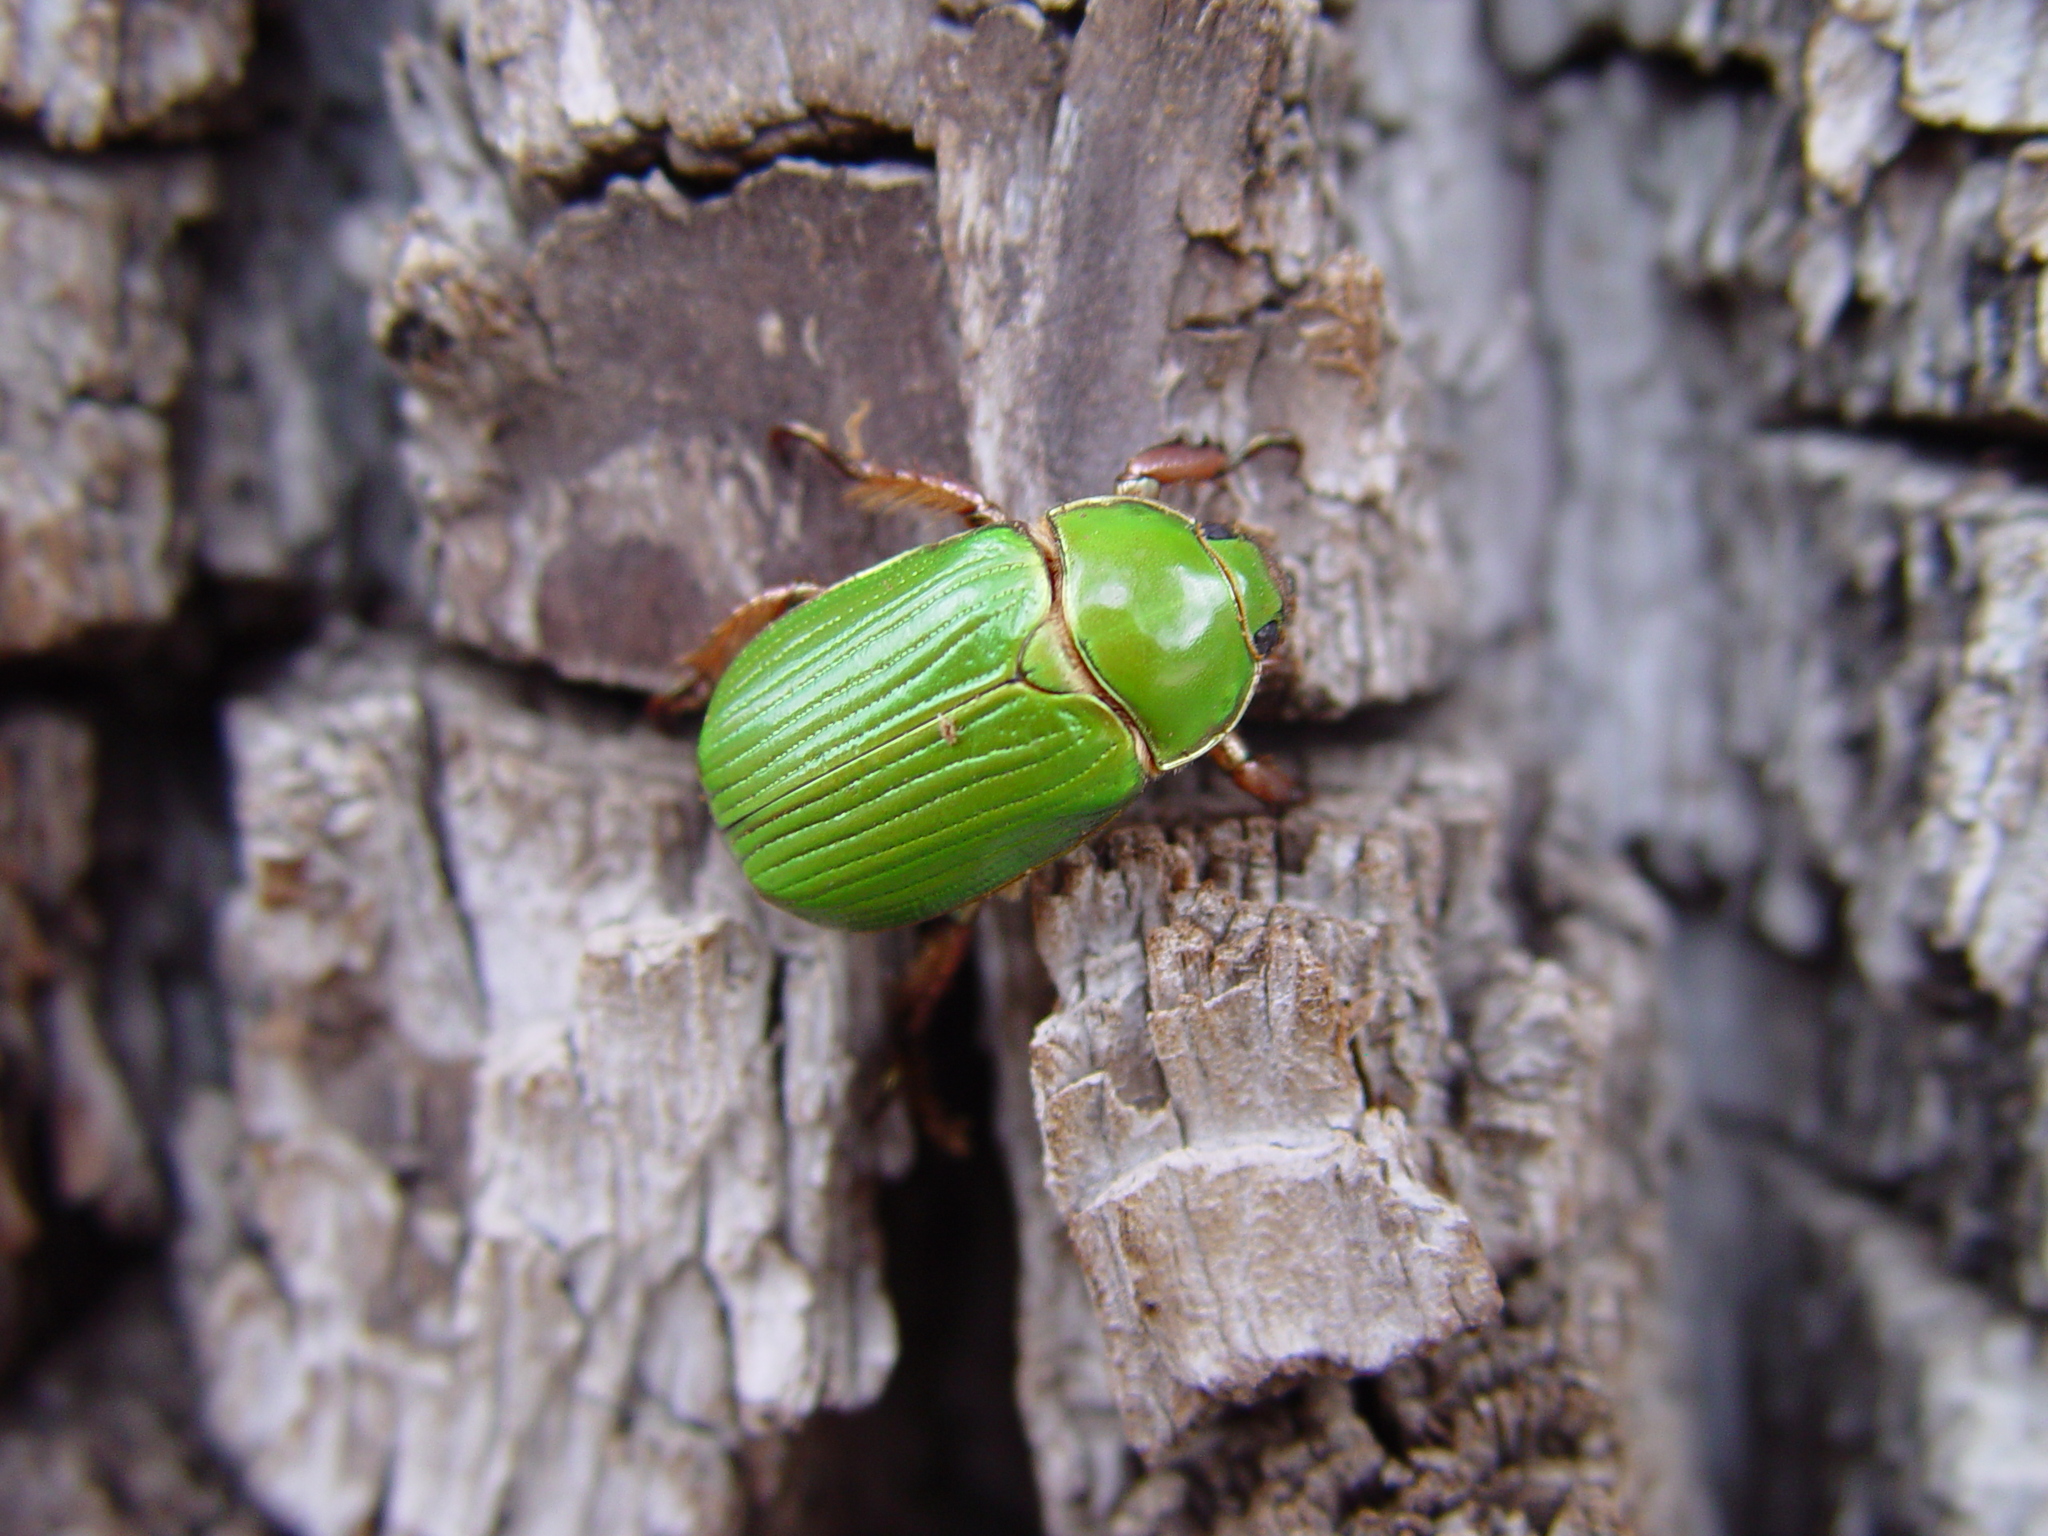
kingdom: Animalia
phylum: Arthropoda
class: Insecta
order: Coleoptera
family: Scarabaeidae
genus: Chrysina
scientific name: Chrysina lecontei
